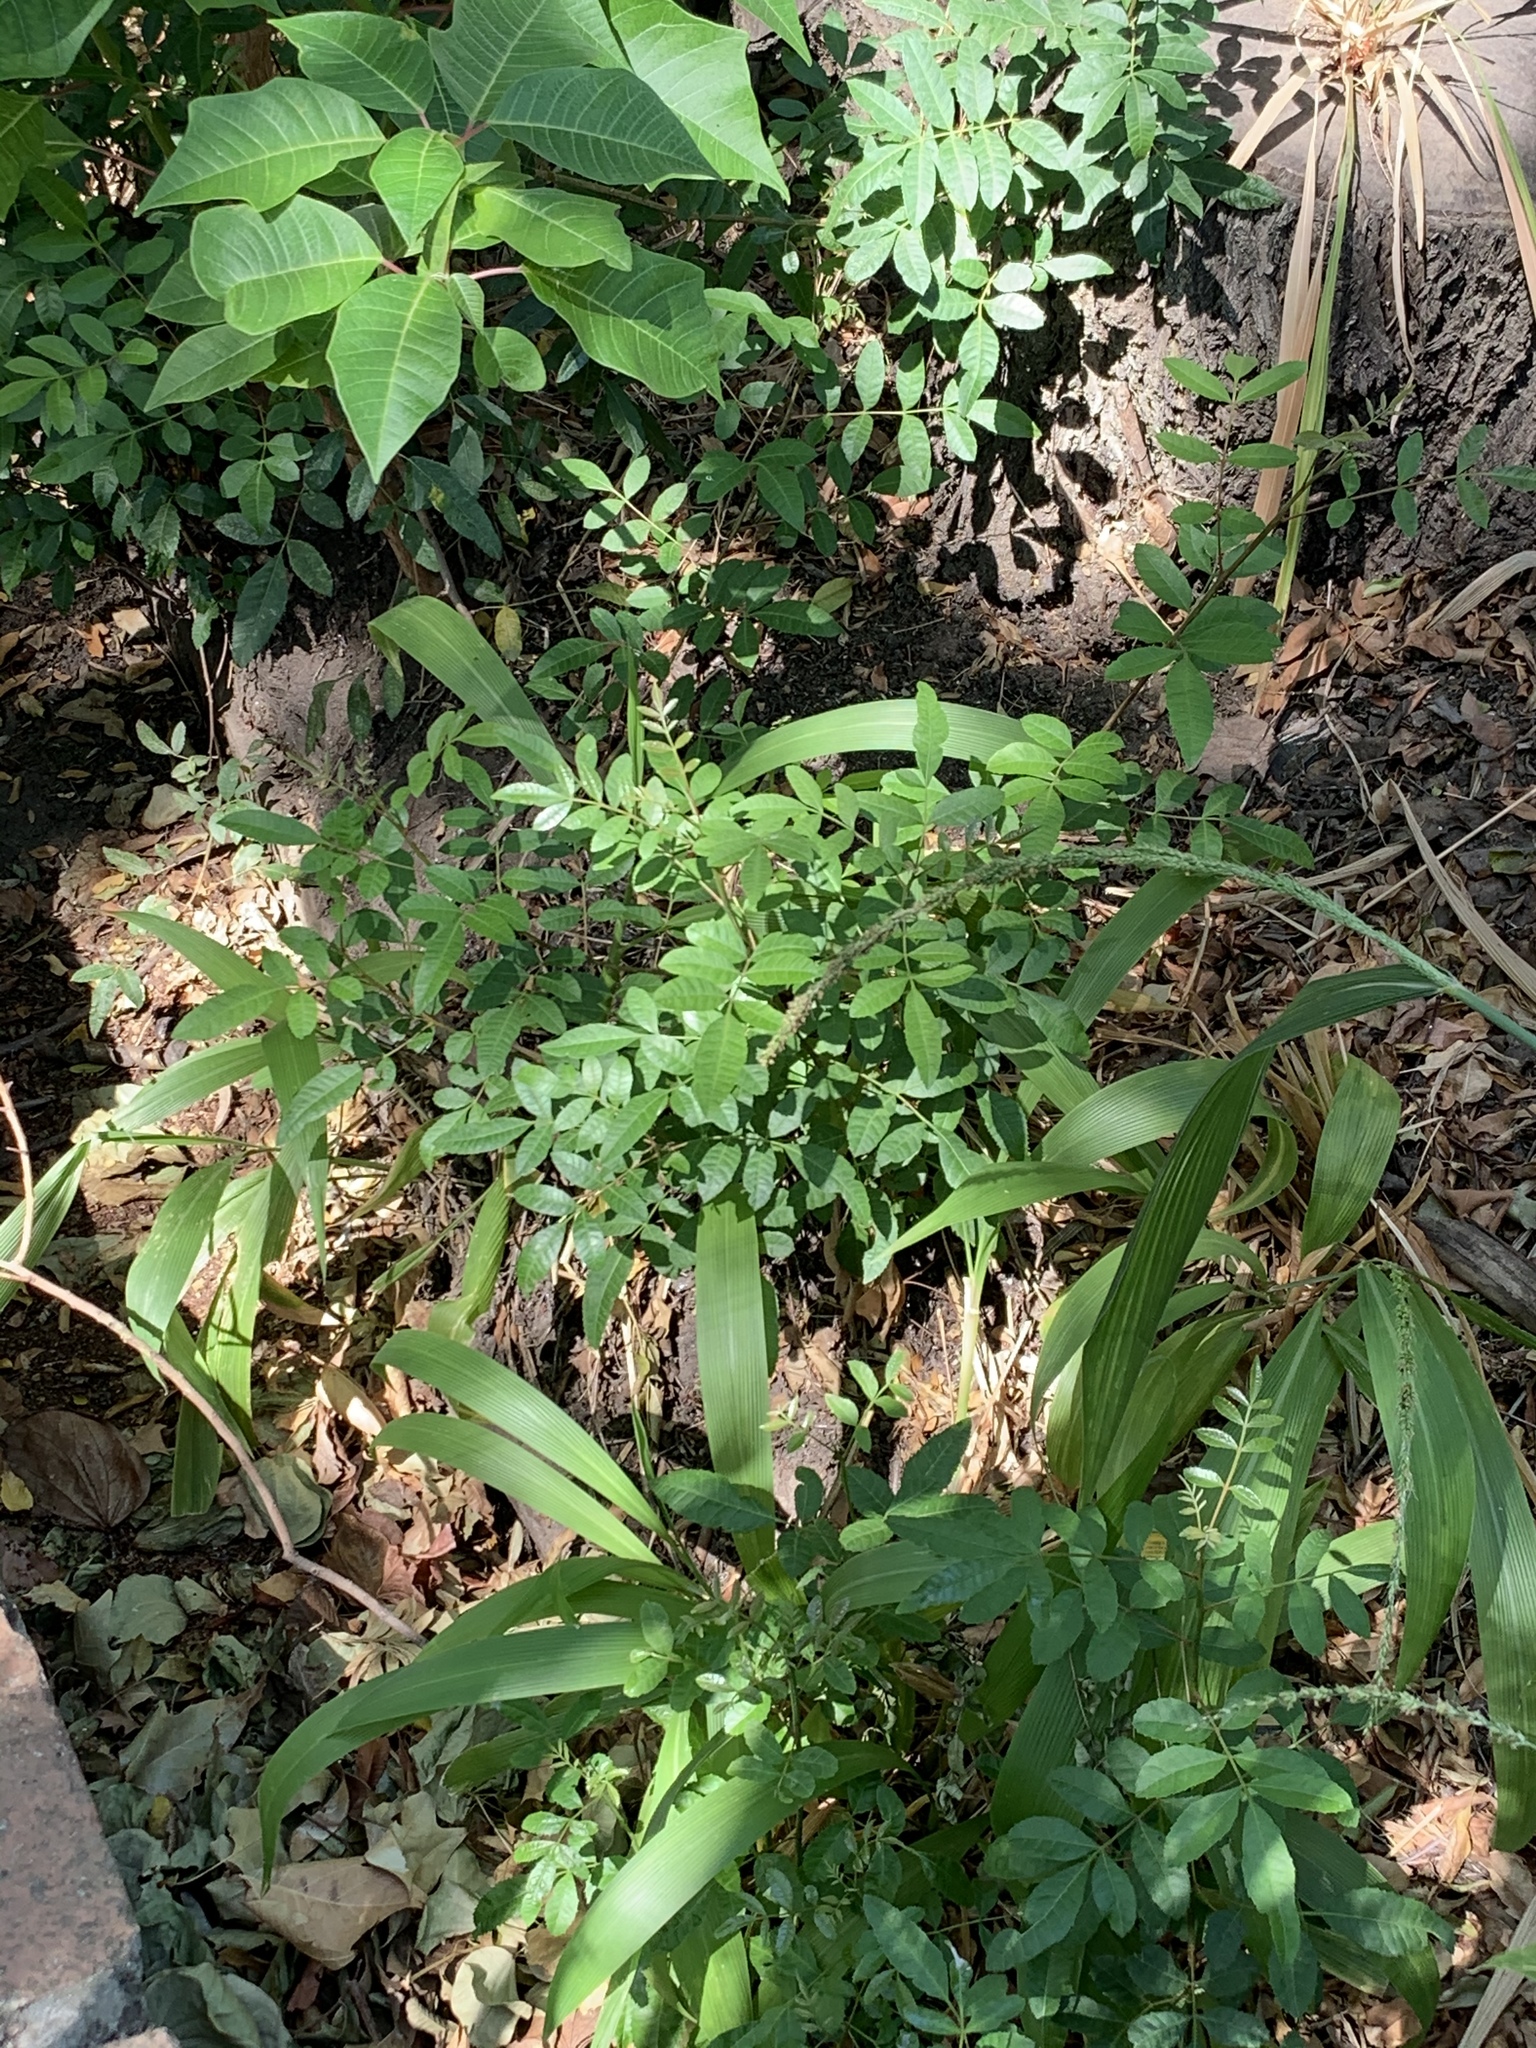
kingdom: Plantae
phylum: Tracheophyta
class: Magnoliopsida
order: Sapindales
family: Anacardiaceae
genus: Schinus
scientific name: Schinus terebinthifolia
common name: Brazilian peppertree
